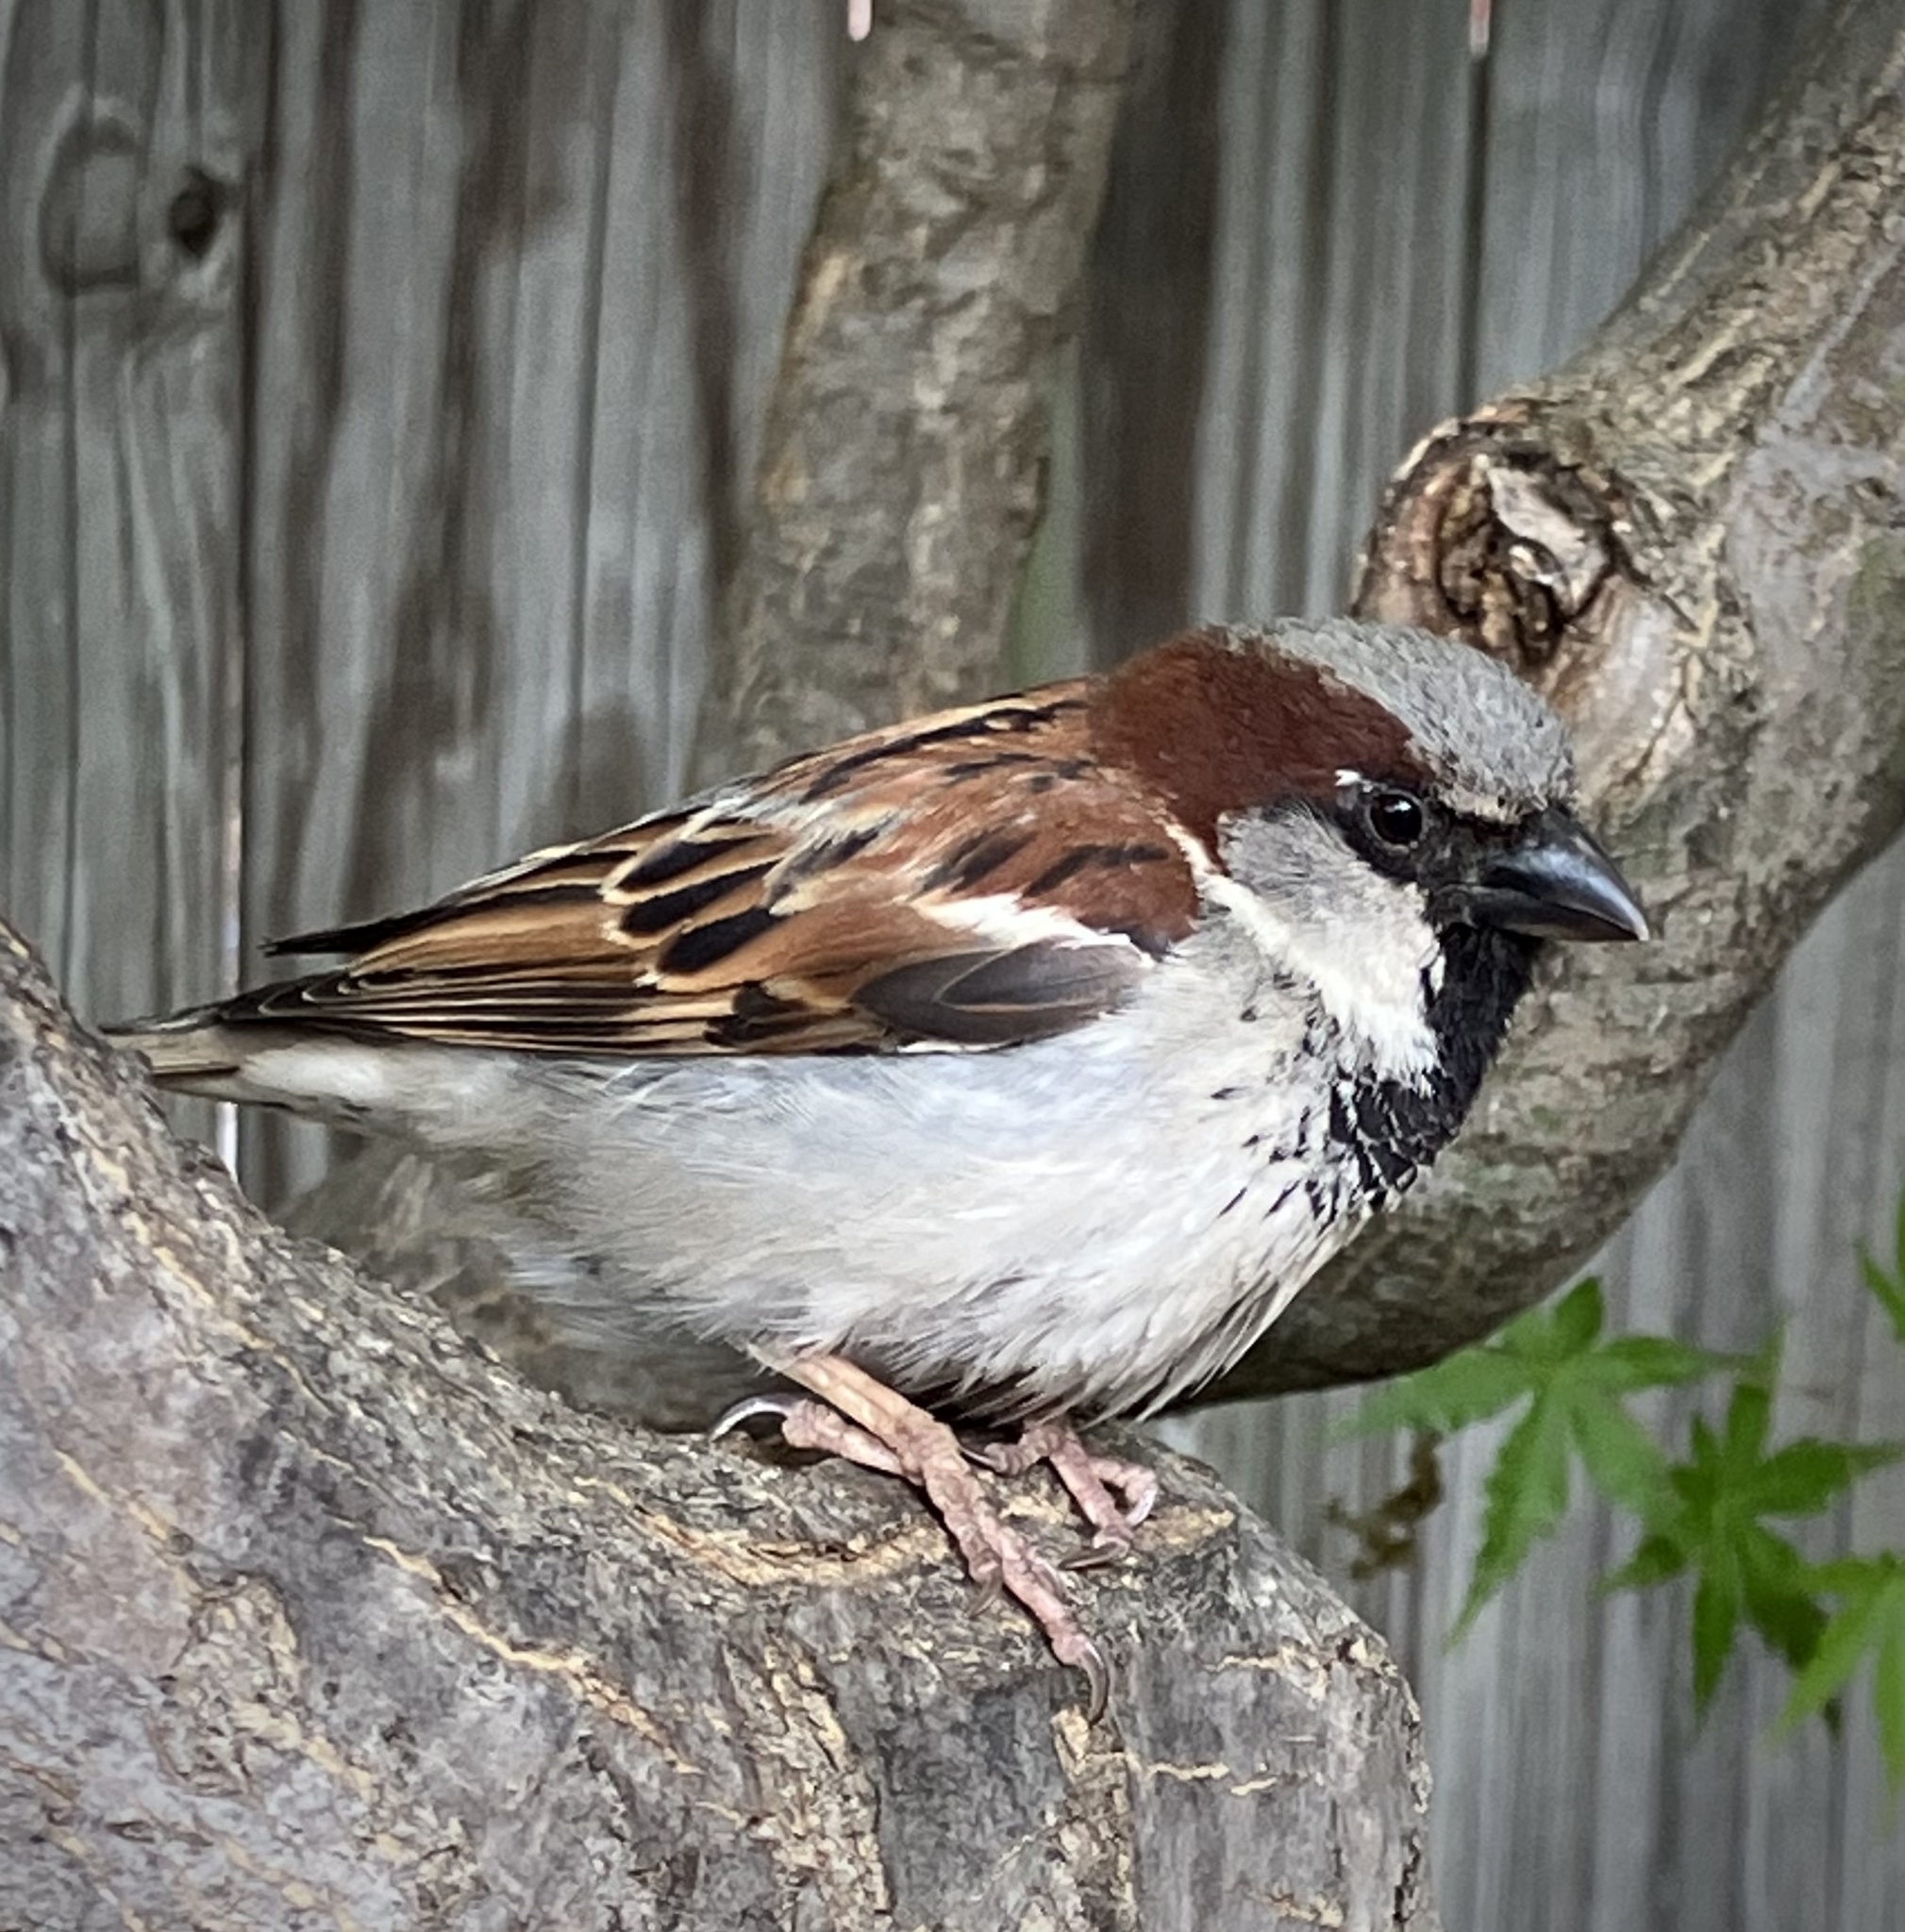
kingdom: Animalia
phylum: Chordata
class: Aves
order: Passeriformes
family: Passeridae
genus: Passer
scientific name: Passer domesticus
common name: House sparrow
